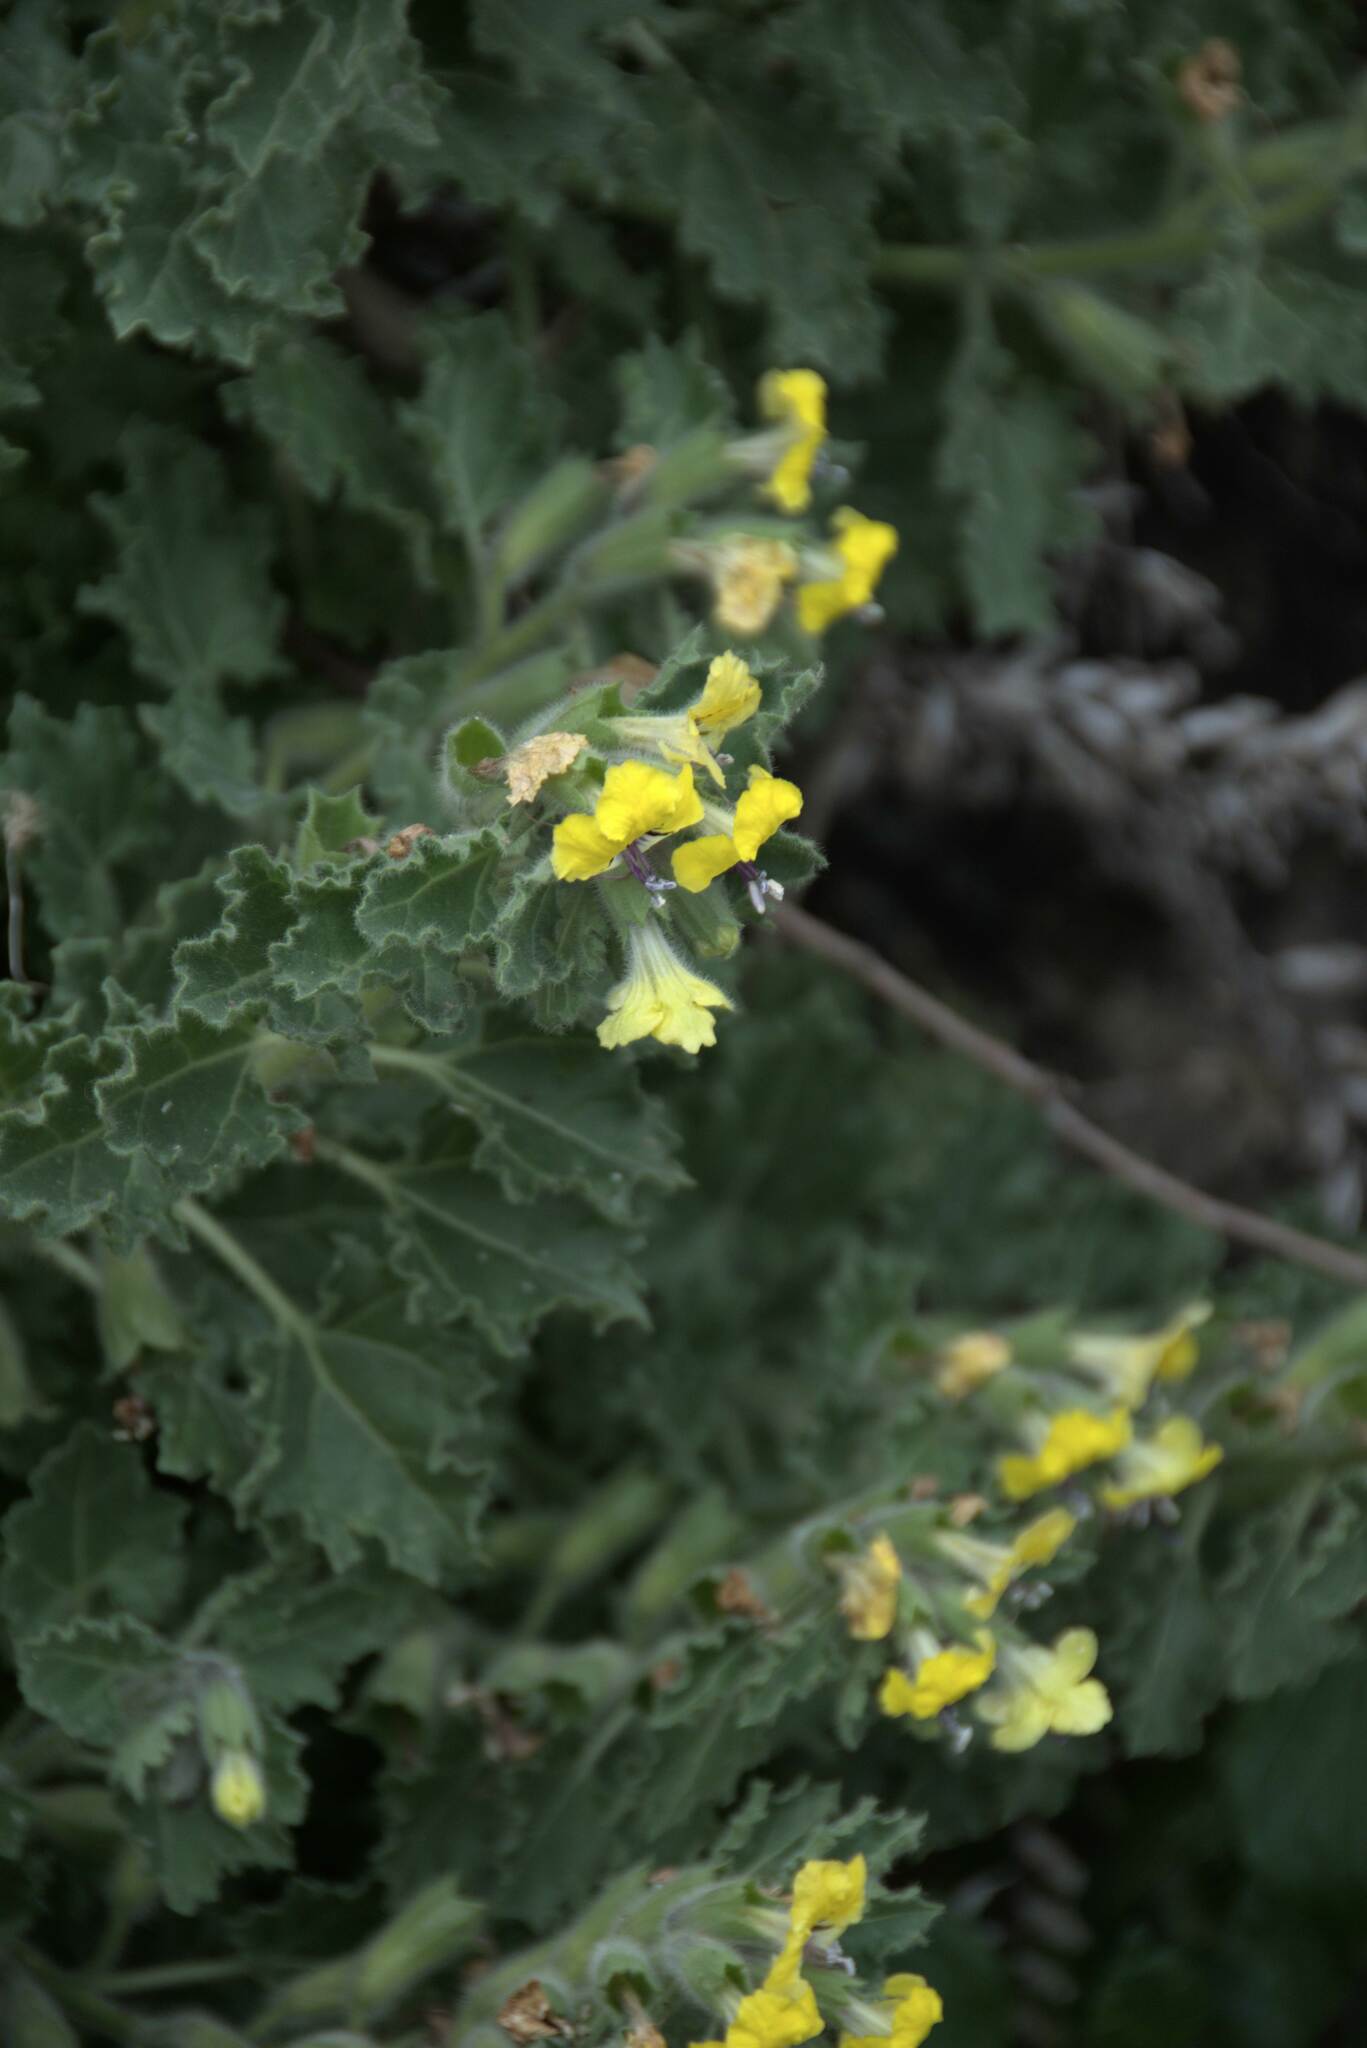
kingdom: Plantae
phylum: Tracheophyta
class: Magnoliopsida
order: Solanales
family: Solanaceae
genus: Hyoscyamus
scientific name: Hyoscyamus aureus
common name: Golden henbane
